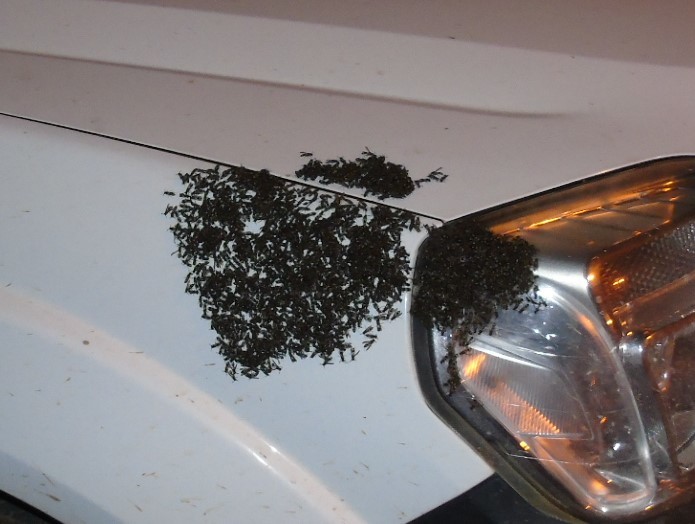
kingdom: Animalia
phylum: Arthropoda
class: Insecta
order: Hymenoptera
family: Vespidae
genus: Myrapetra
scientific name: Myrapetra
